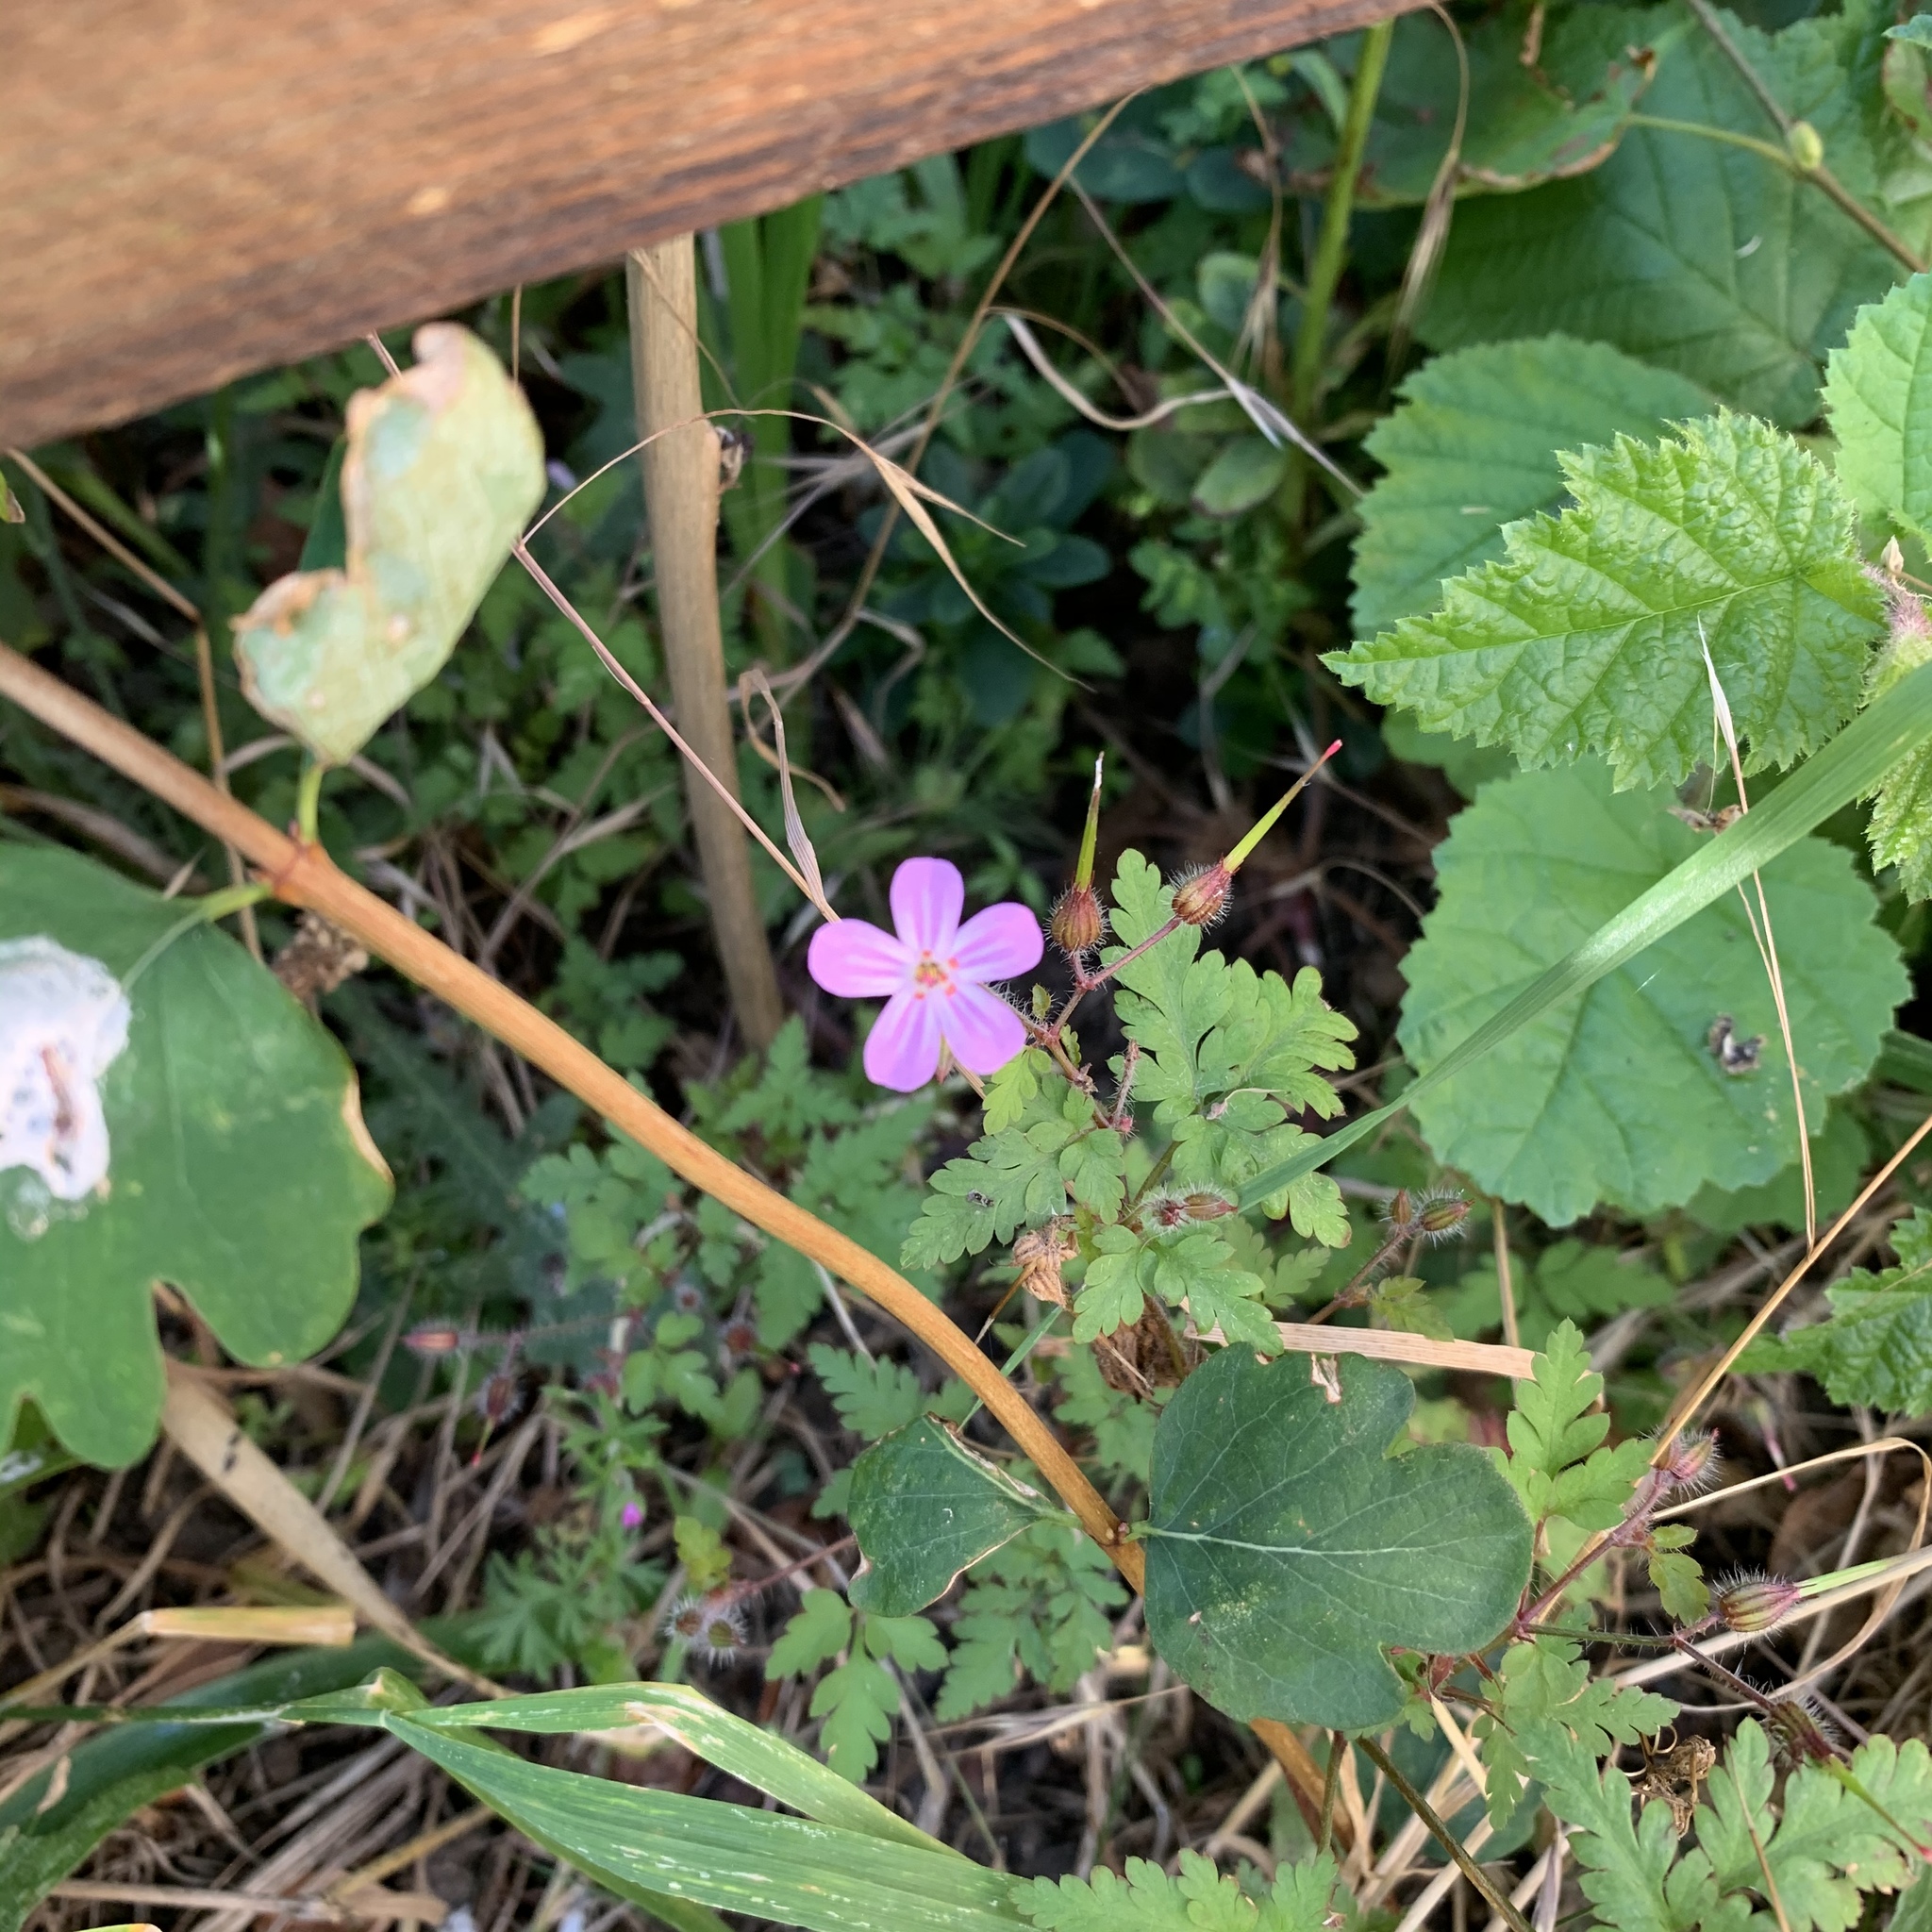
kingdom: Plantae
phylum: Tracheophyta
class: Magnoliopsida
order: Geraniales
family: Geraniaceae
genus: Geranium
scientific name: Geranium robertianum
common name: Herb-robert
